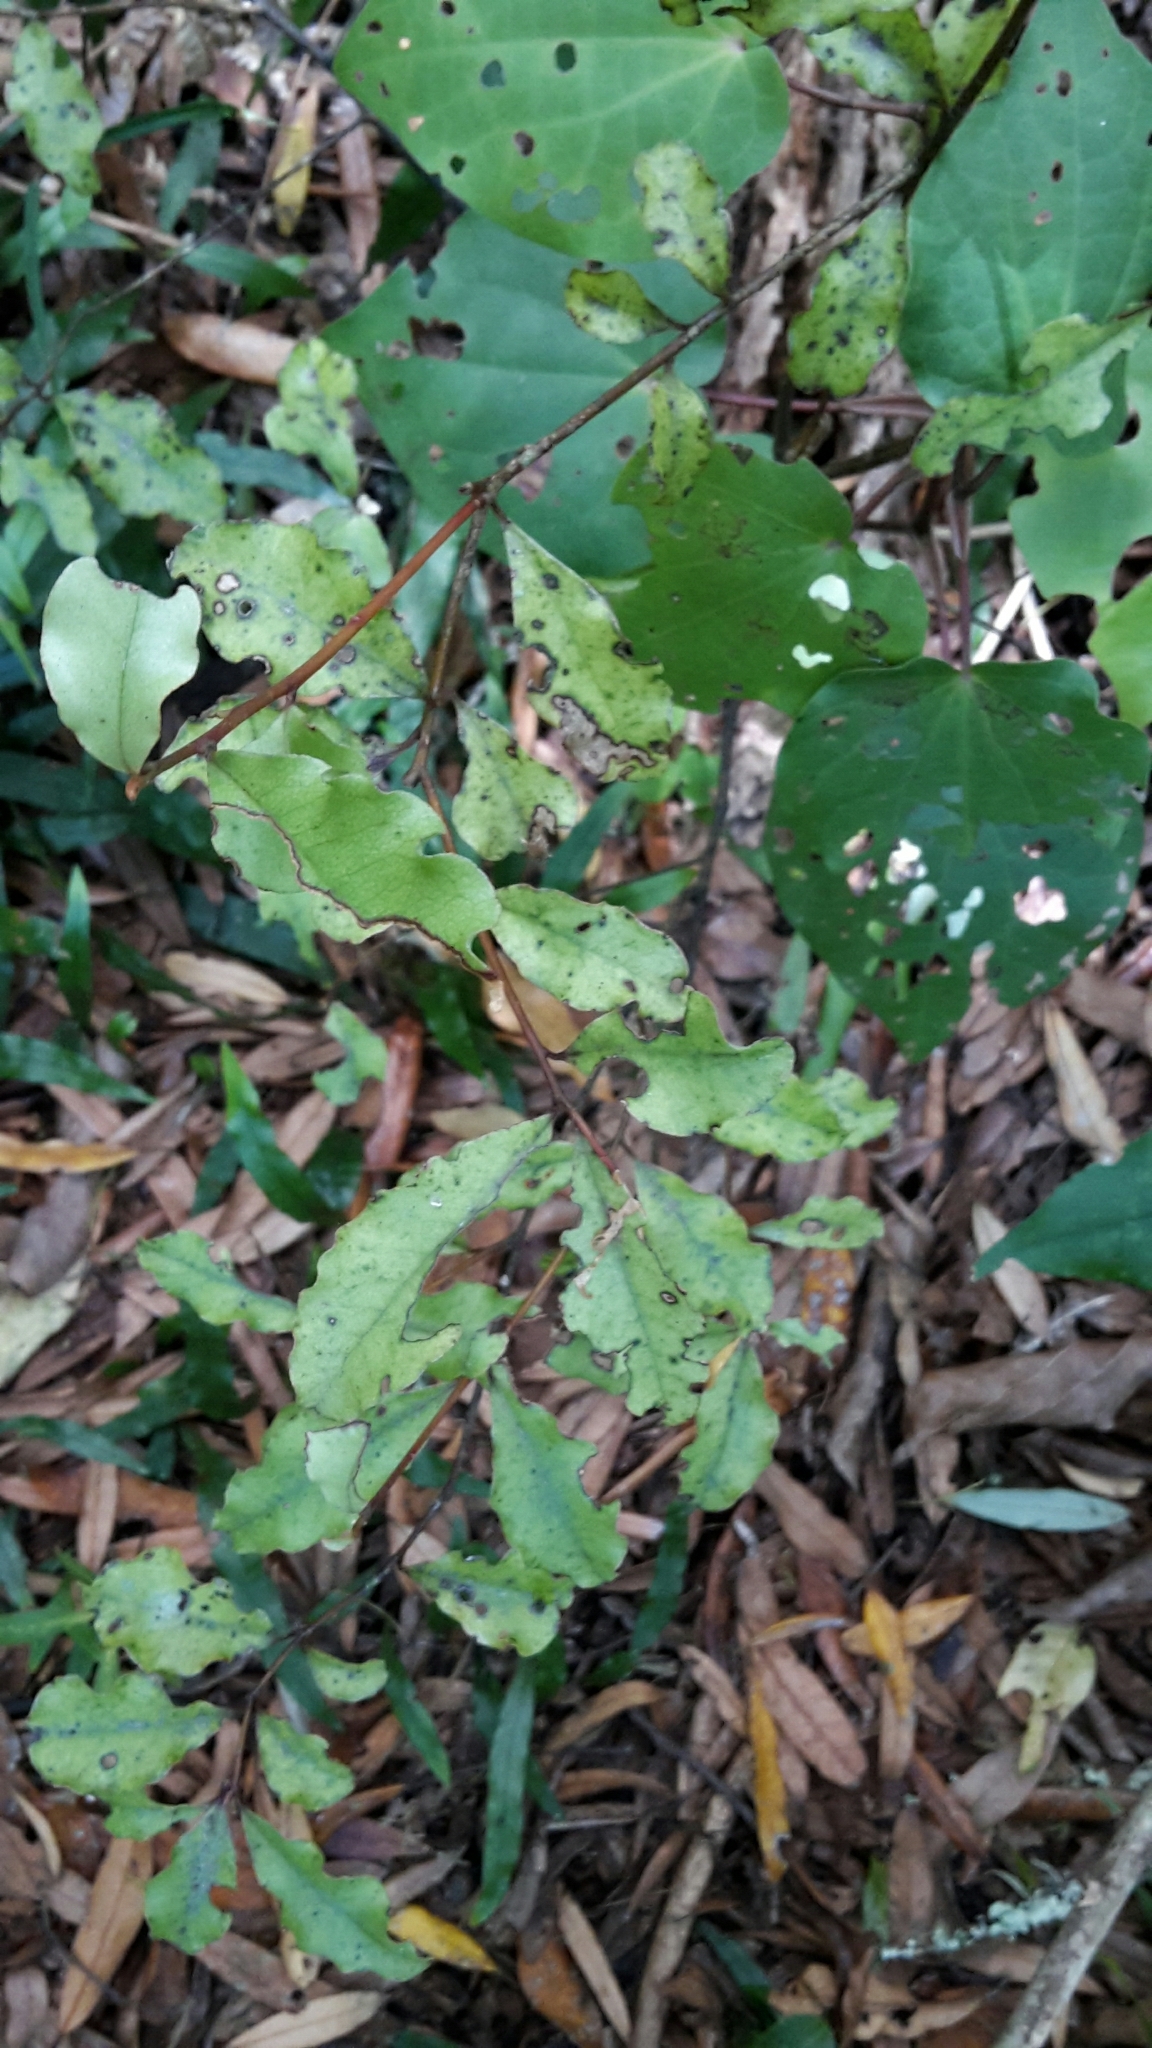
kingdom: Plantae
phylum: Tracheophyta
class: Magnoliopsida
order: Ericales
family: Primulaceae
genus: Myrsine
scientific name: Myrsine australis
